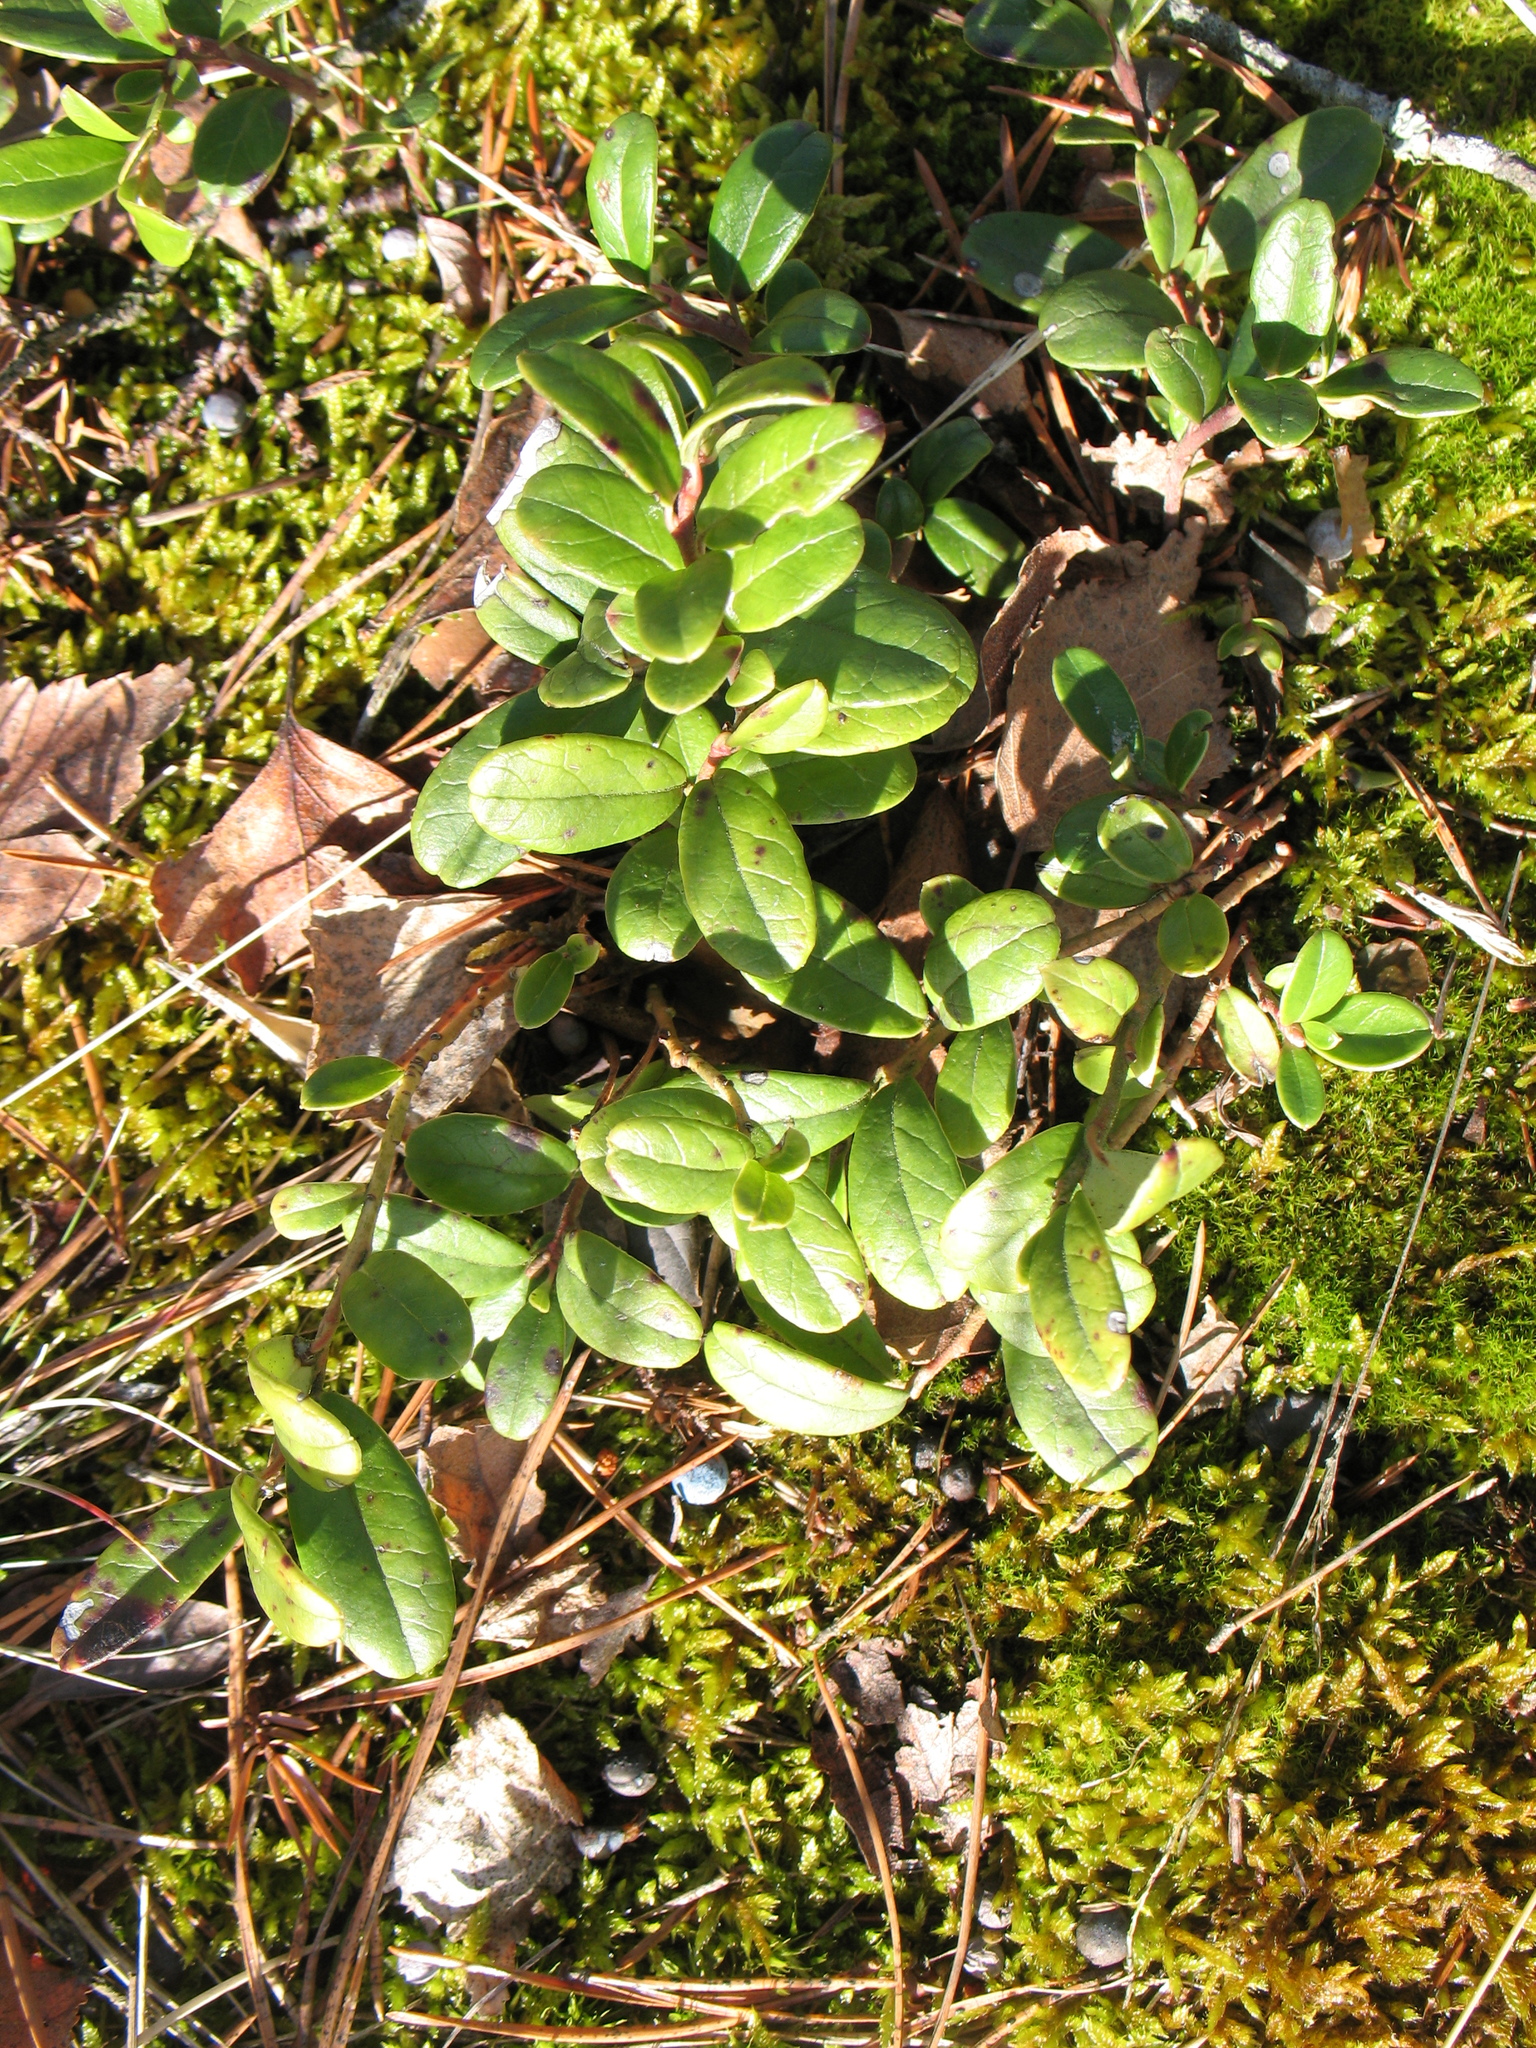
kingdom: Plantae
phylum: Tracheophyta
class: Magnoliopsida
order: Ericales
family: Ericaceae
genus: Vaccinium
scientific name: Vaccinium vitis-idaea
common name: Cowberry
